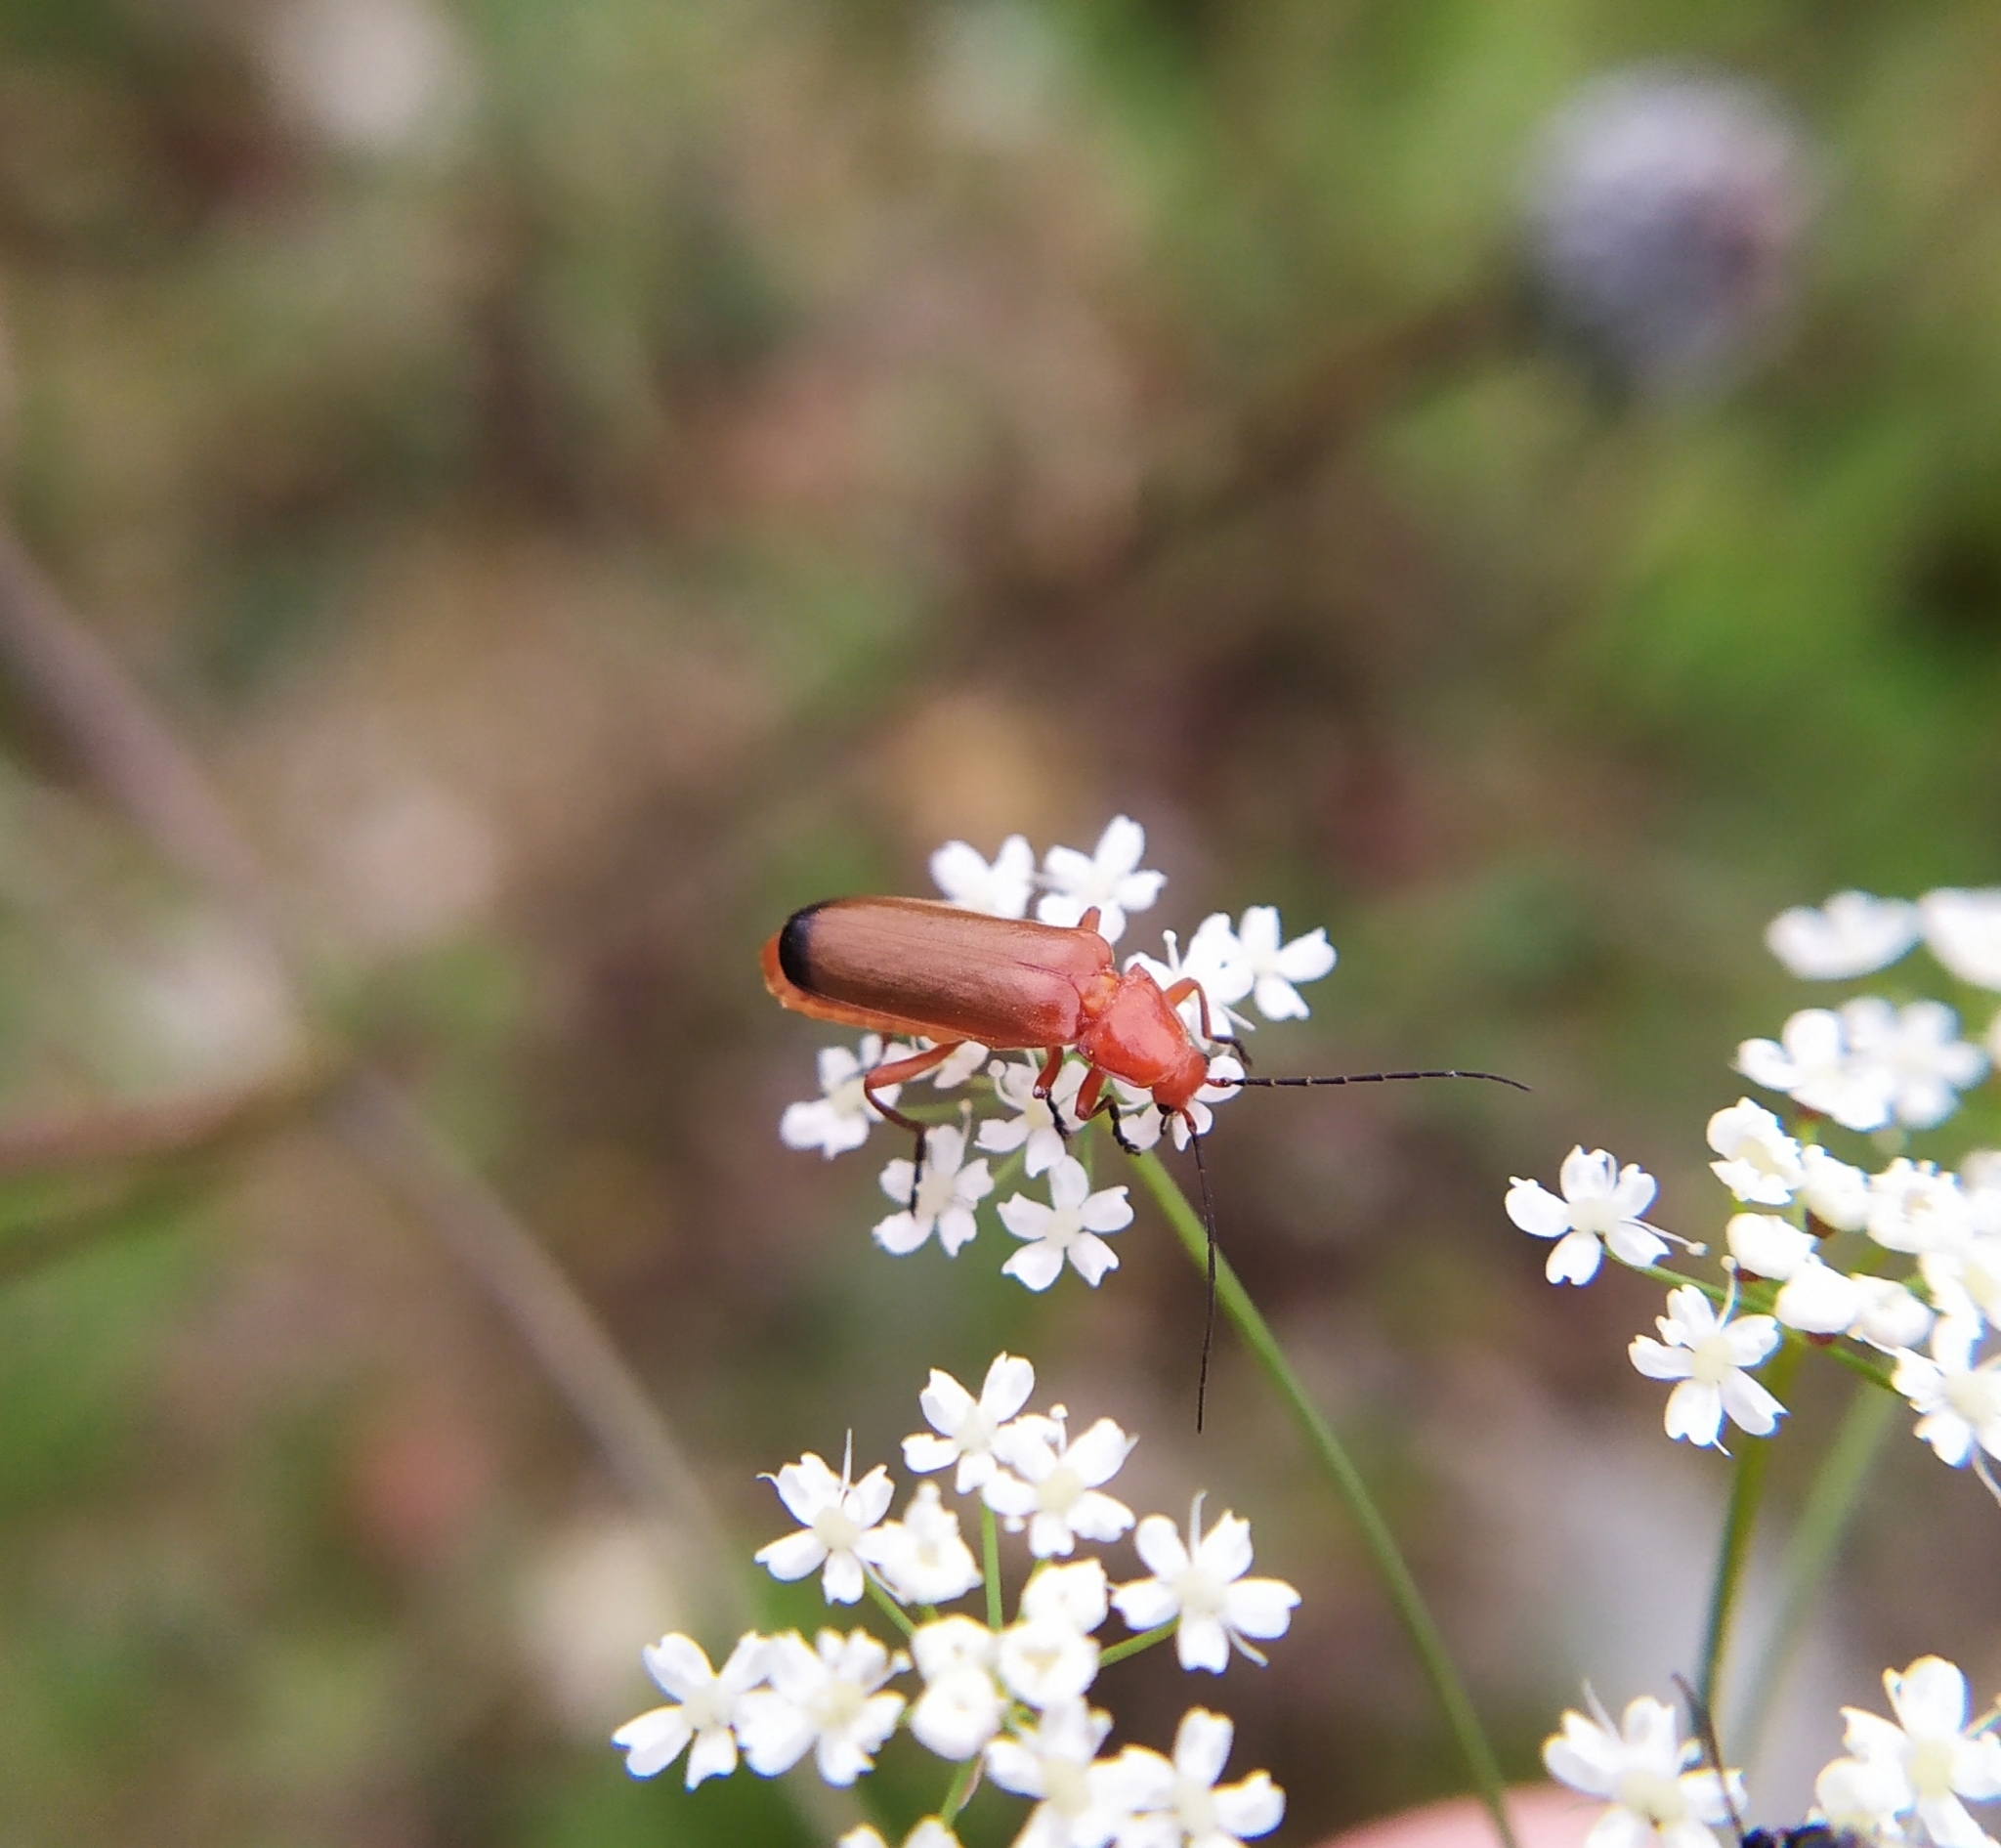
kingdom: Animalia
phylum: Arthropoda
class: Insecta
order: Coleoptera
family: Cantharidae
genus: Rhagonycha
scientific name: Rhagonycha fulva
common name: Common red soldier beetle
